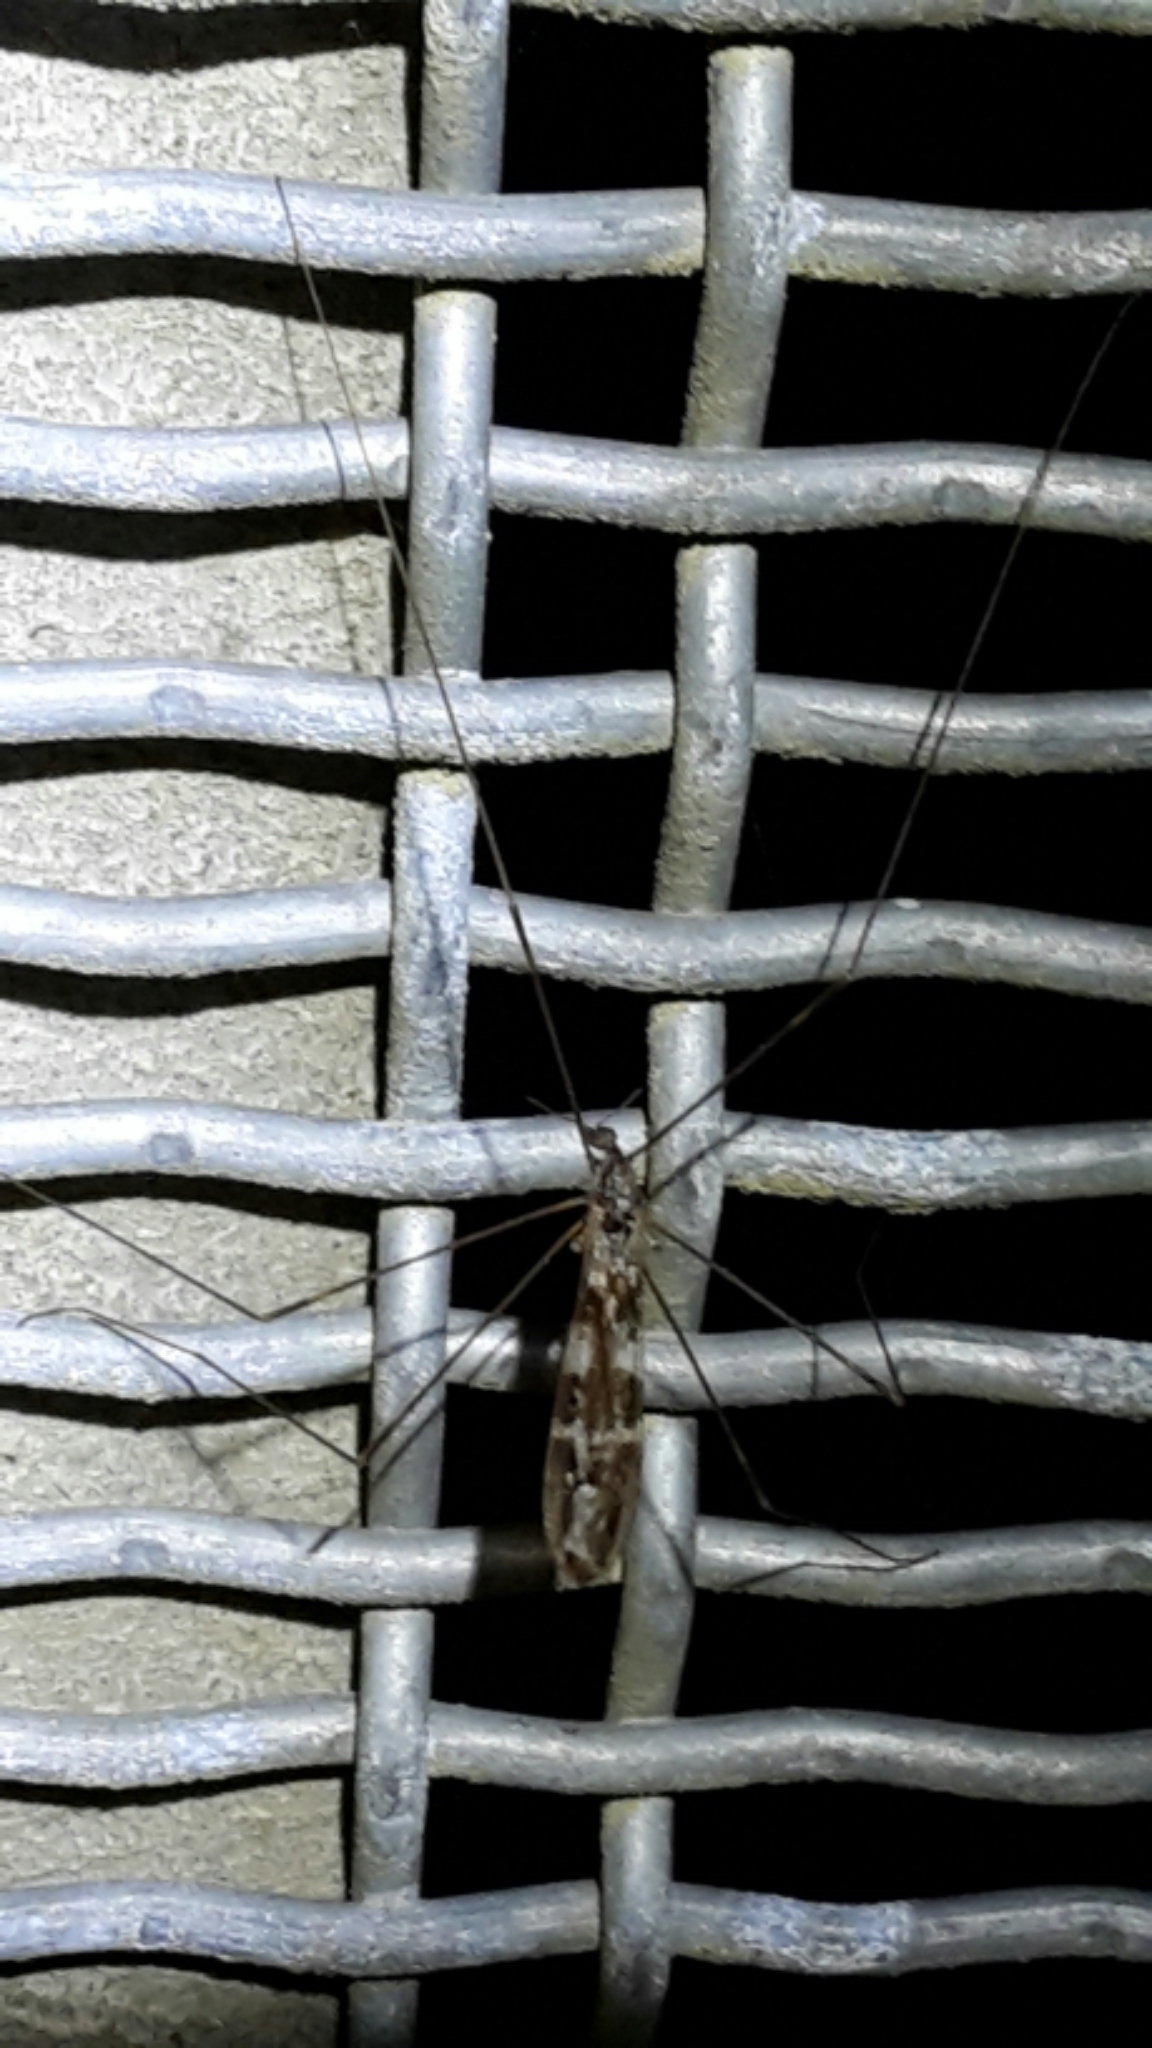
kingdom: Animalia
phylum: Arthropoda
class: Insecta
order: Diptera
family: Limoniidae
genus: Discobola
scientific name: Discobola dohrni
